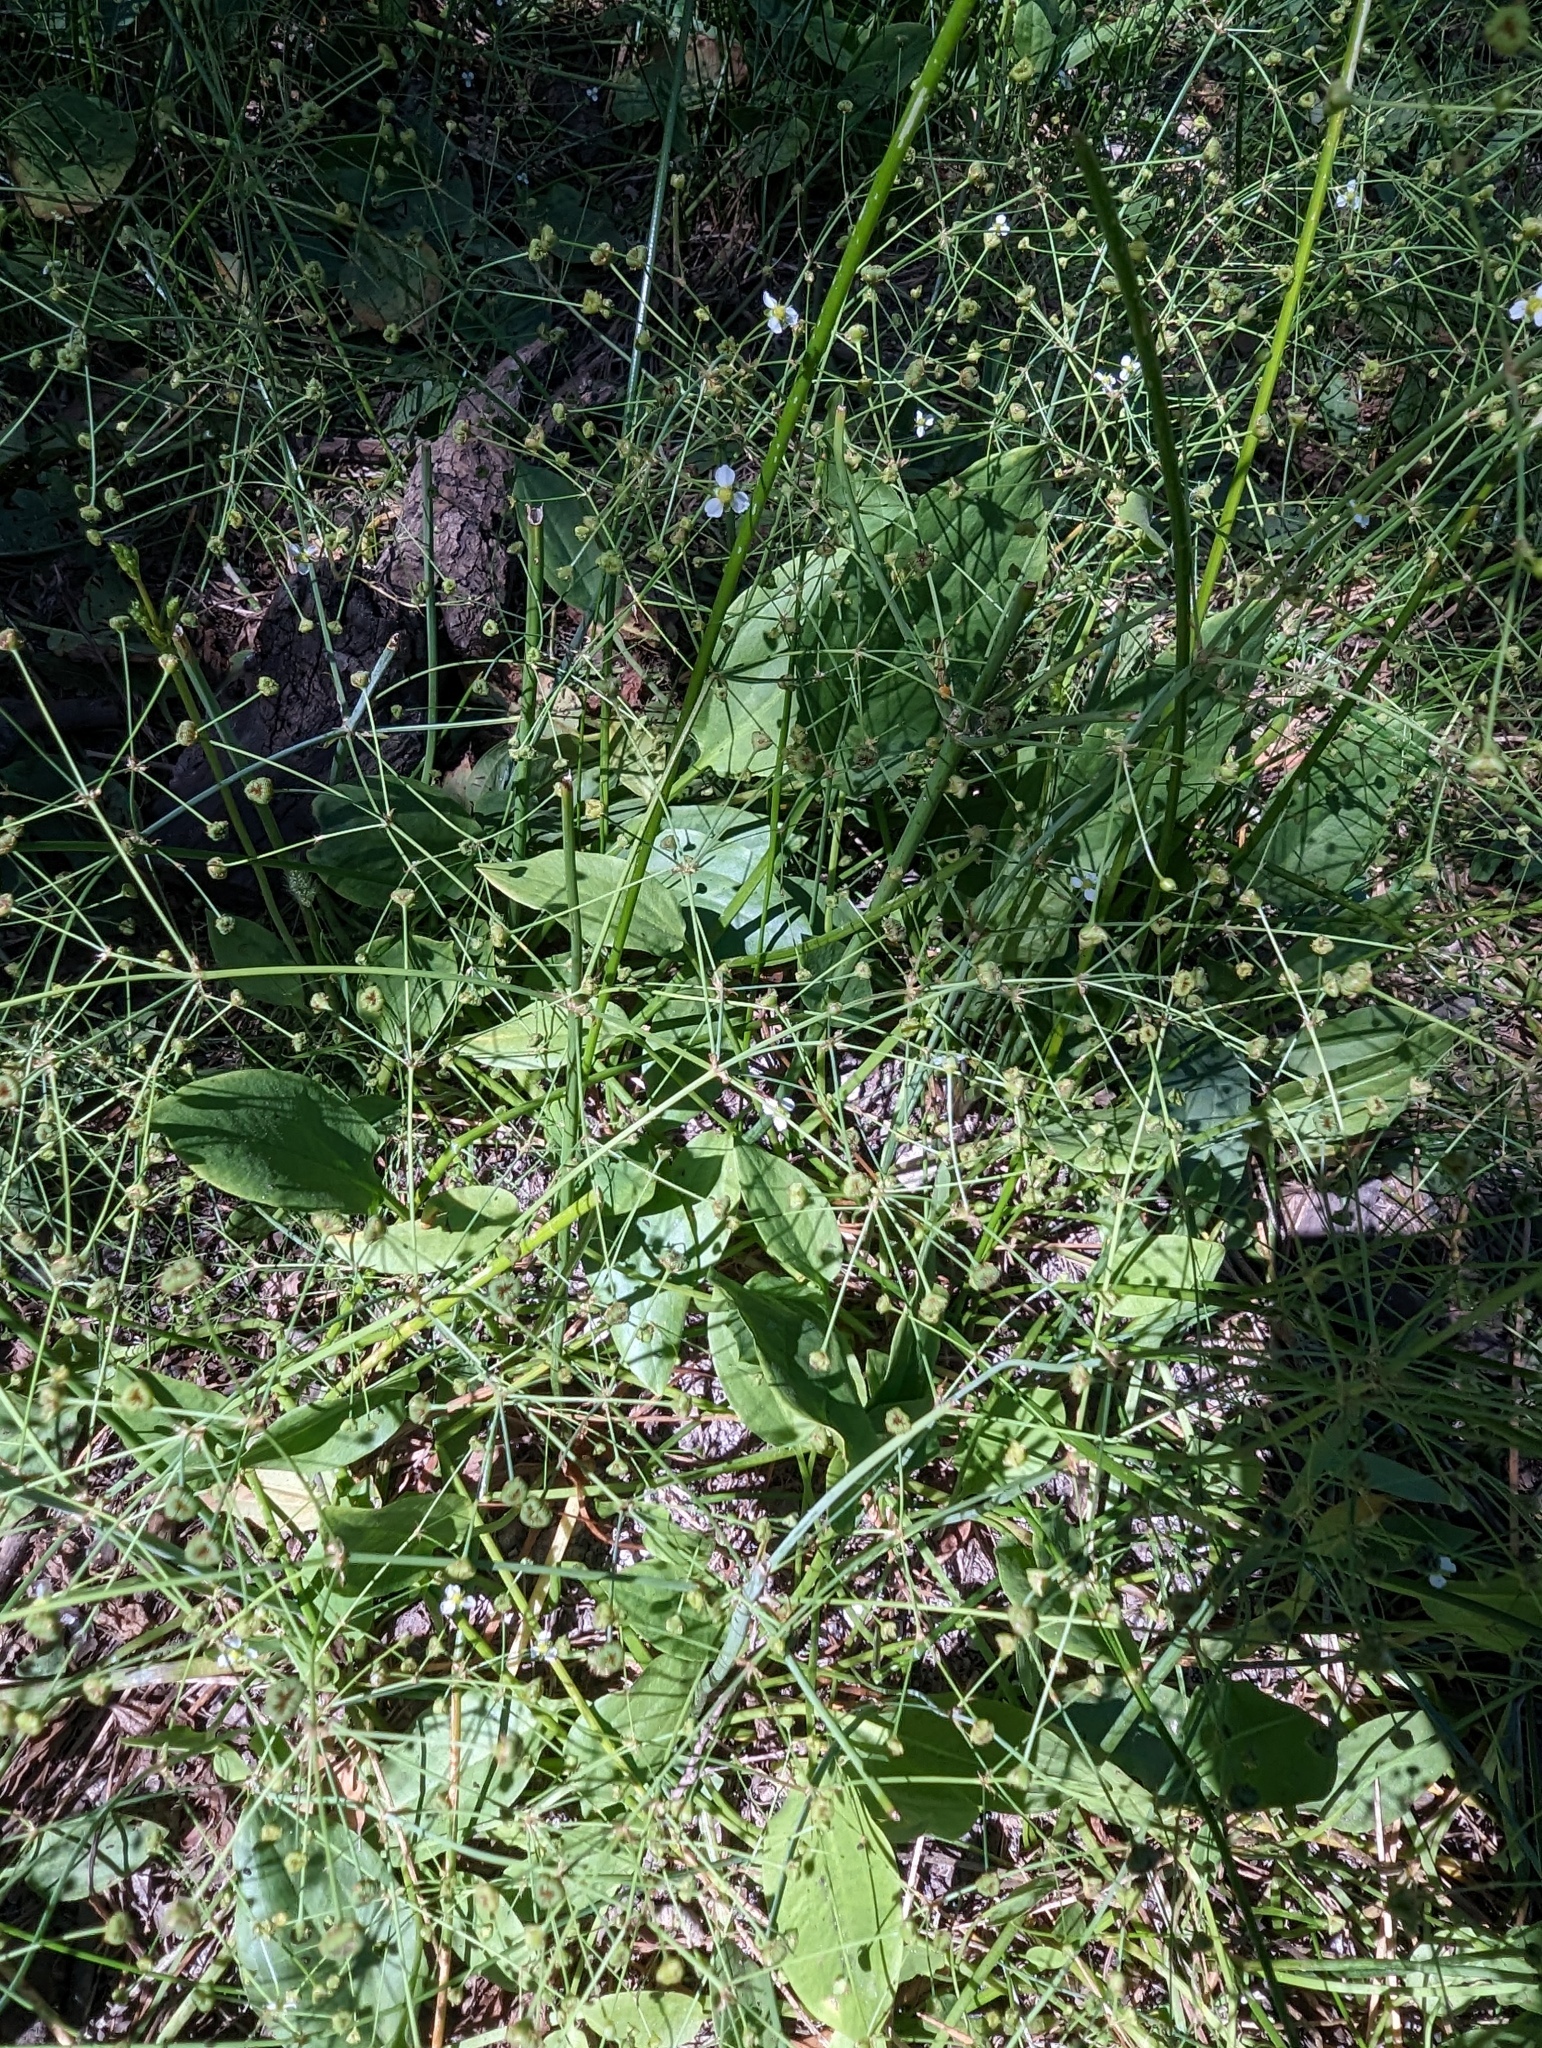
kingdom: Plantae
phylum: Tracheophyta
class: Liliopsida
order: Alismatales
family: Alismataceae
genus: Alisma
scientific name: Alisma triviale
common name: Northern water-plantain
